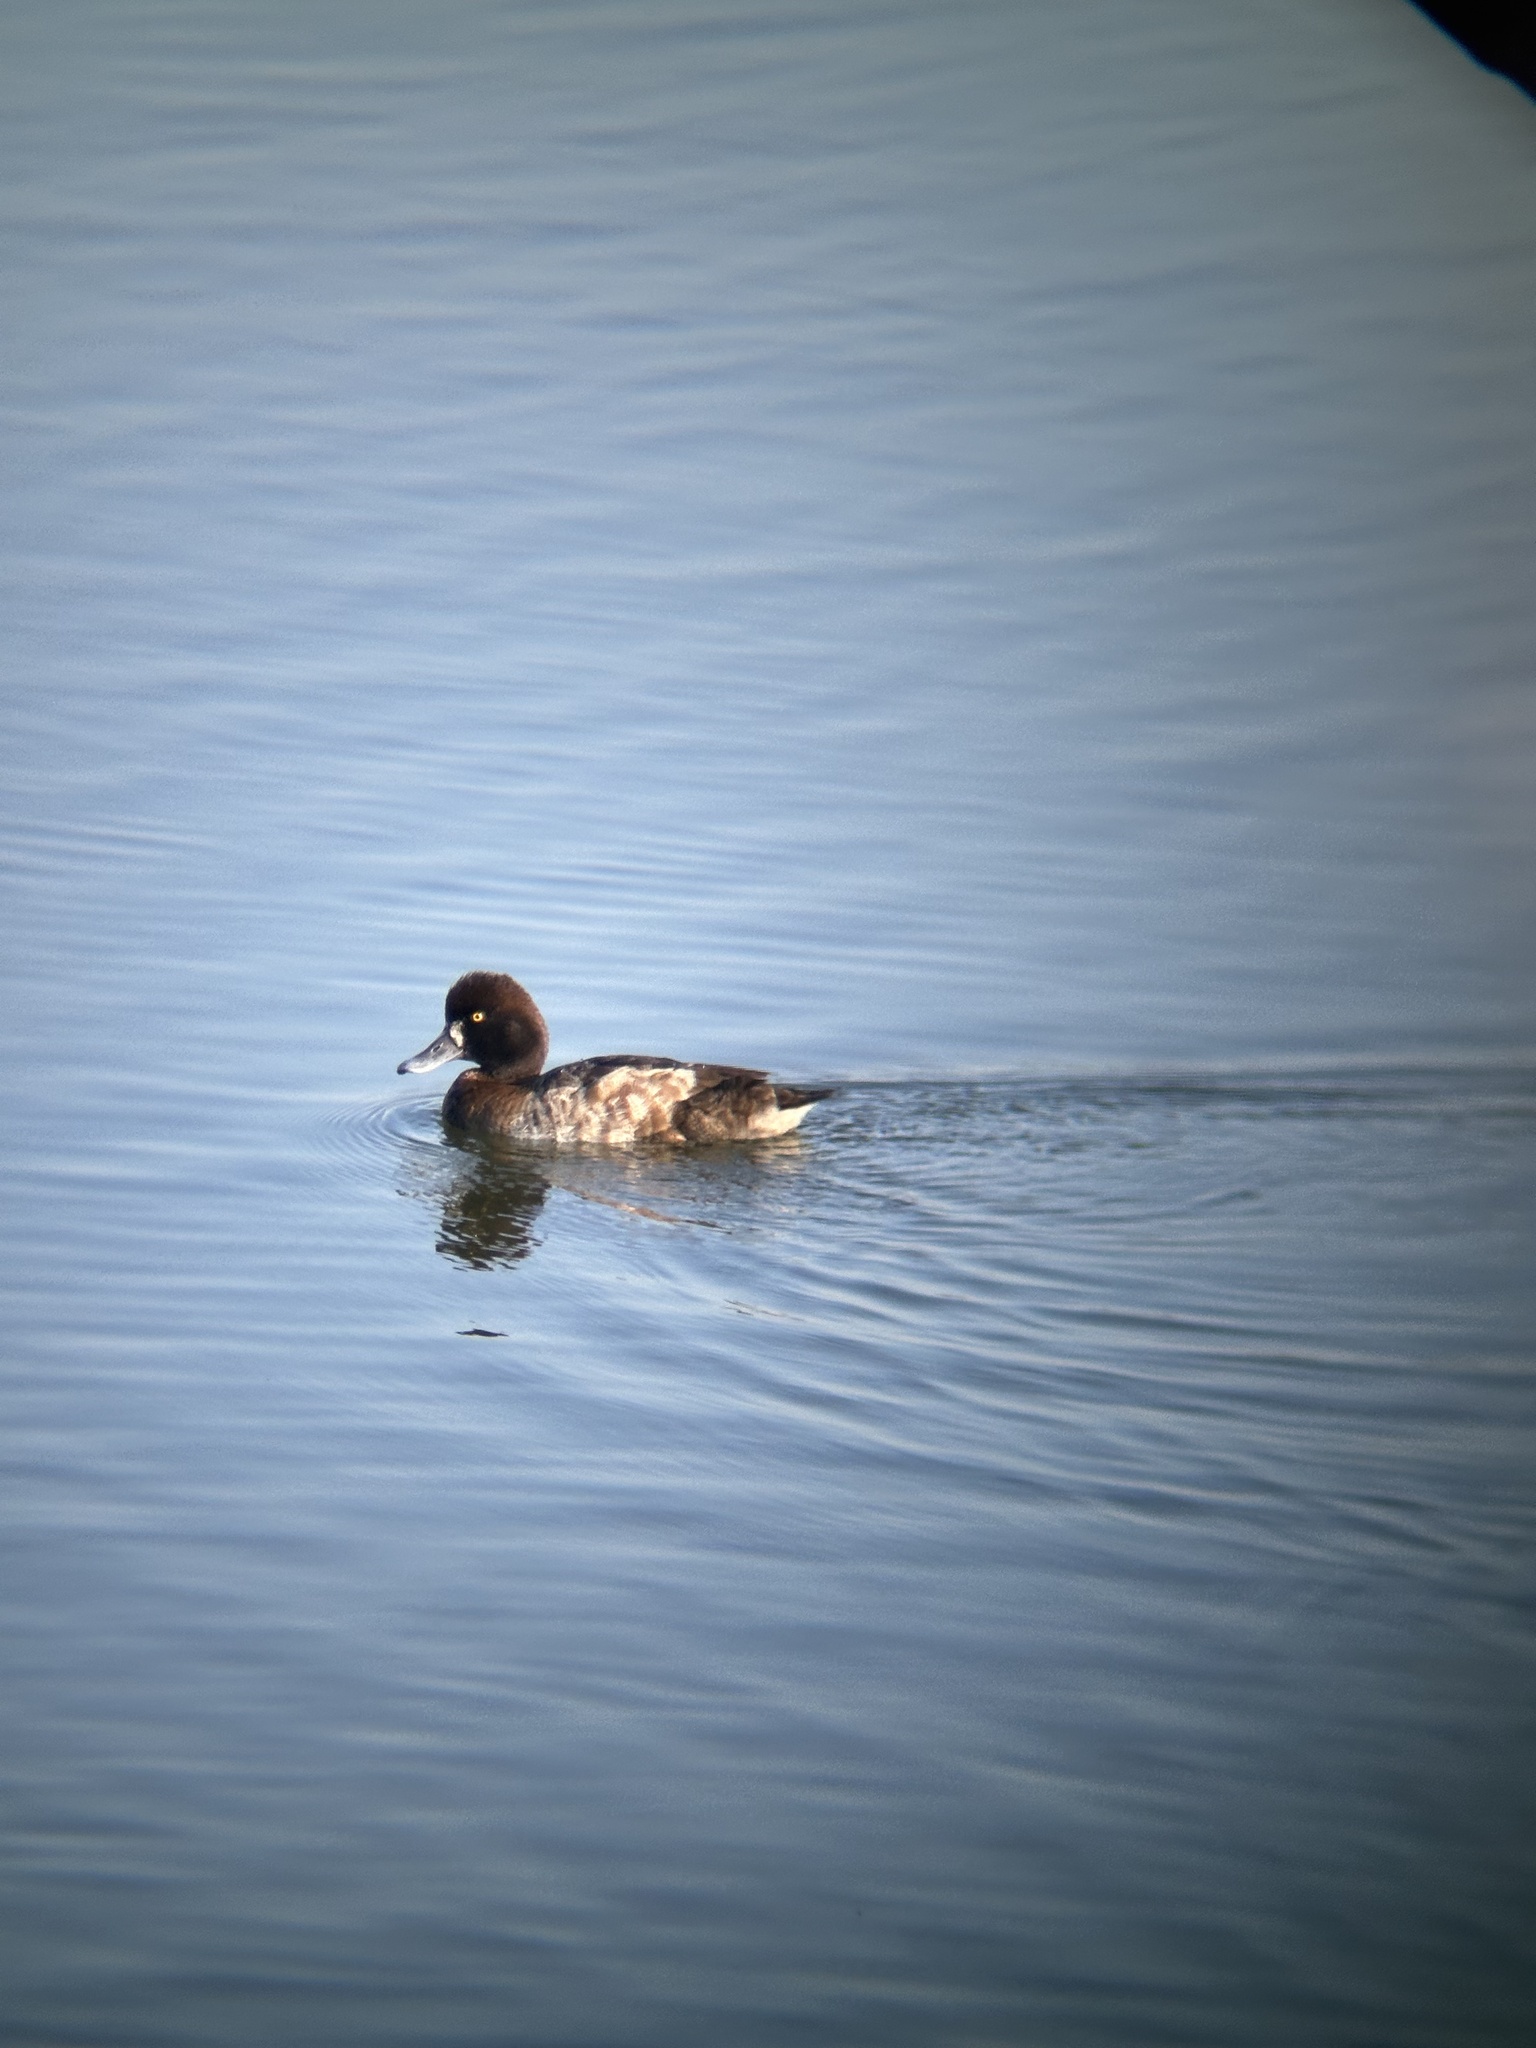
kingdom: Animalia
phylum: Chordata
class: Aves
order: Anseriformes
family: Anatidae
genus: Aythya
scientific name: Aythya affinis
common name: Lesser scaup
